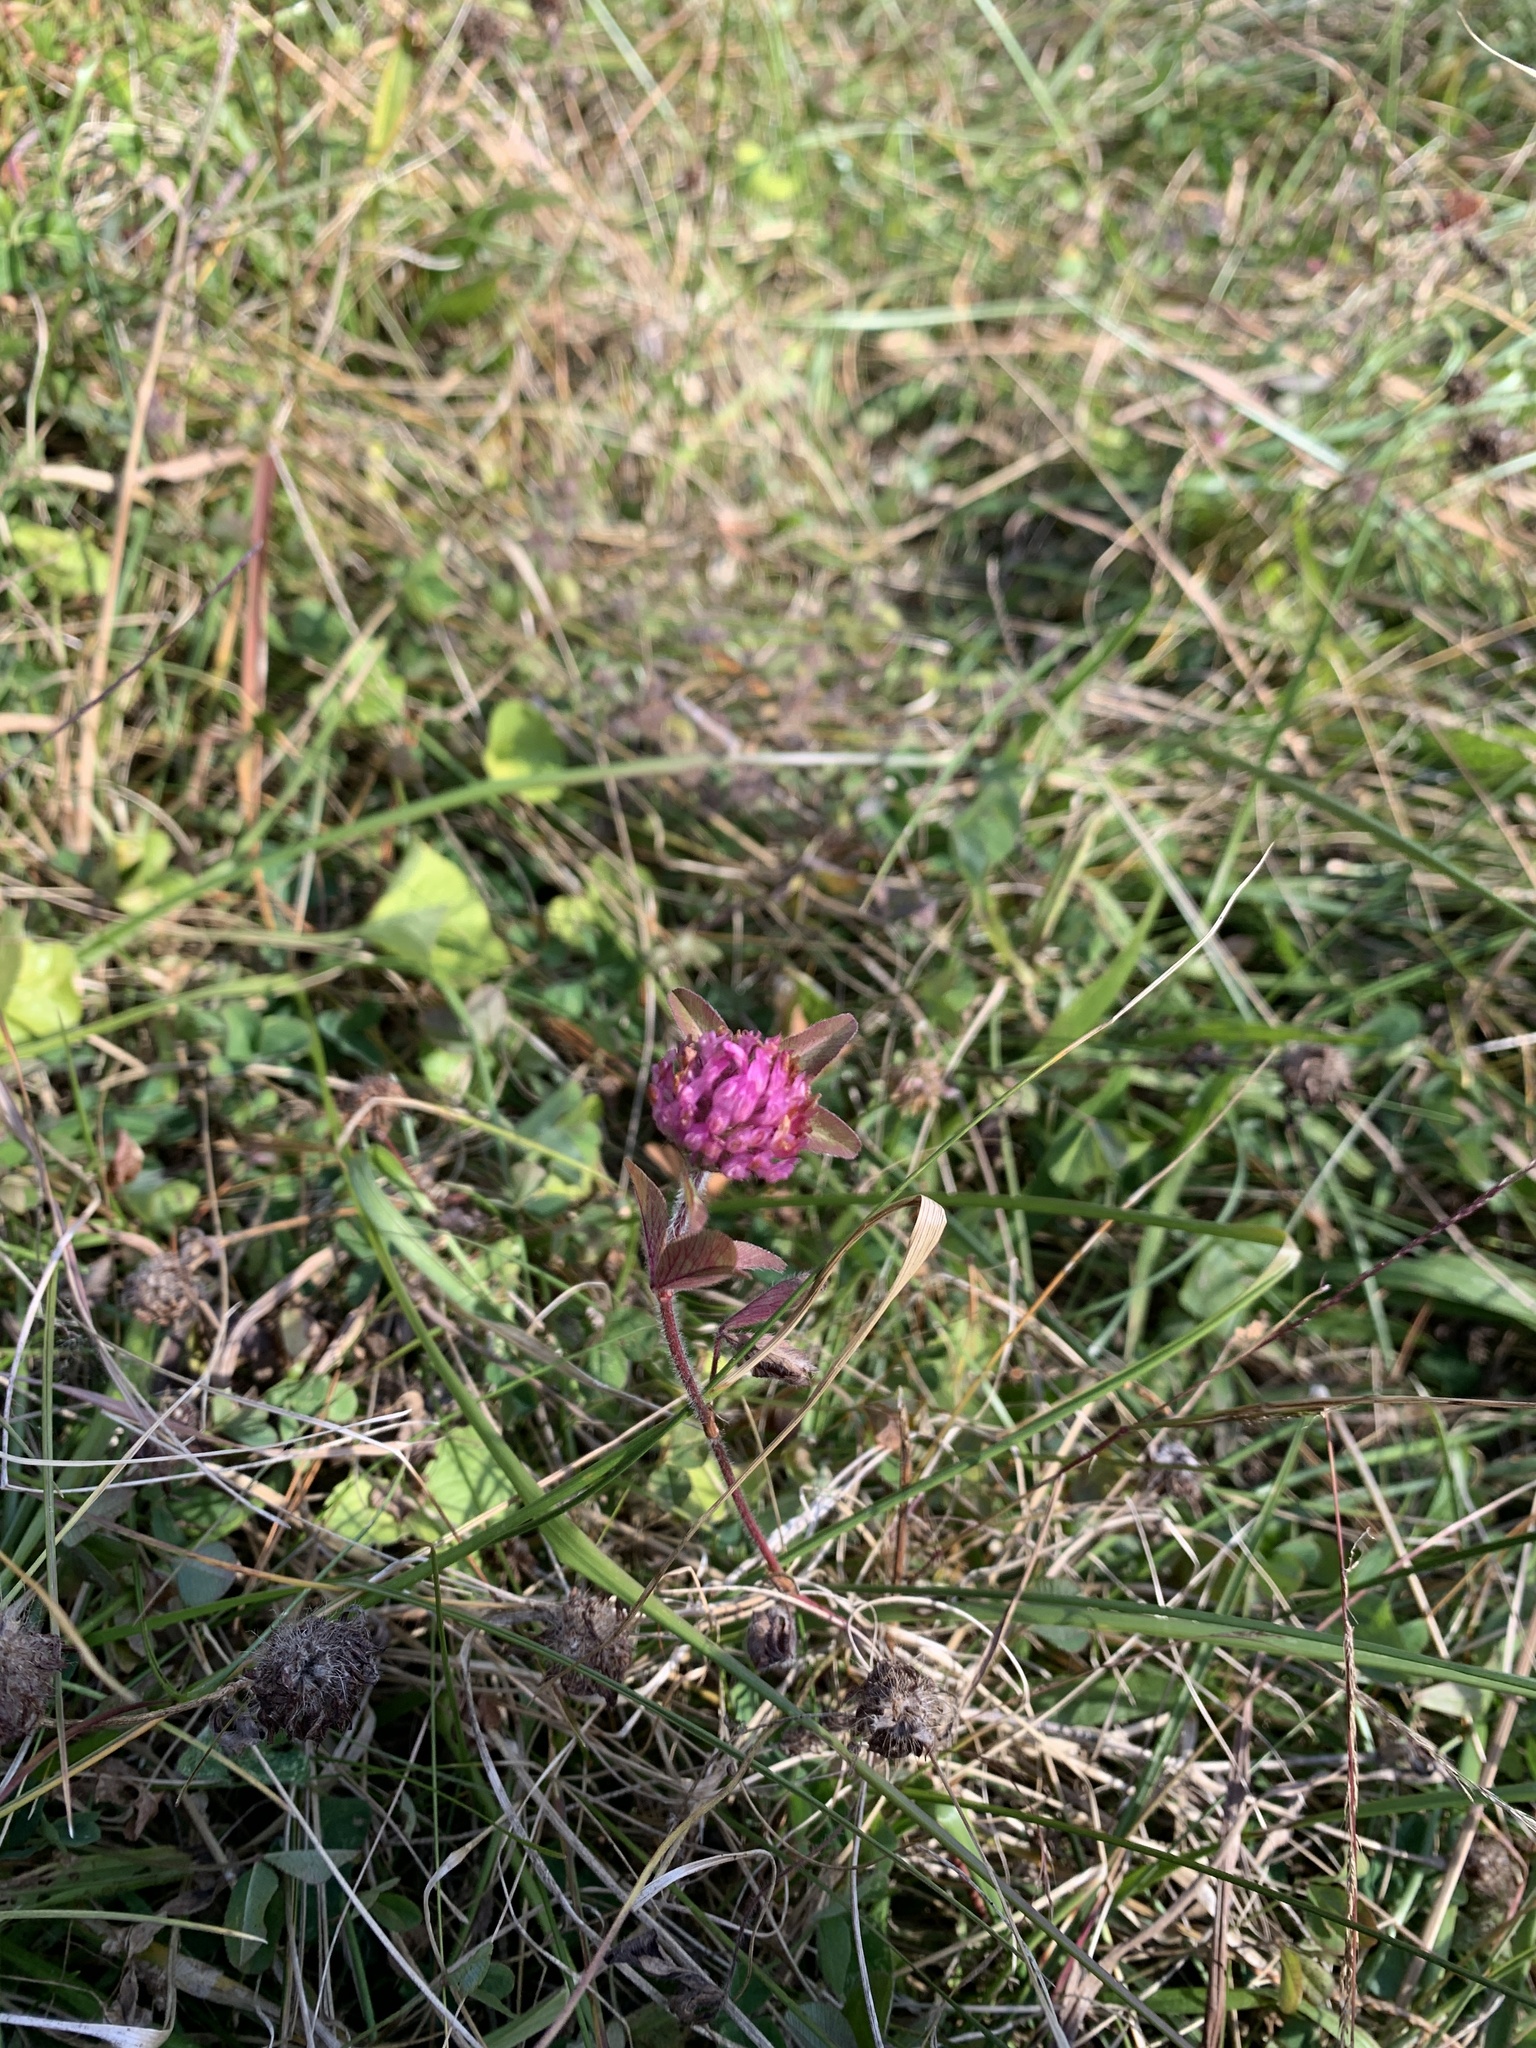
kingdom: Plantae
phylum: Tracheophyta
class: Magnoliopsida
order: Fabales
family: Fabaceae
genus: Trifolium
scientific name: Trifolium pratense
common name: Red clover
